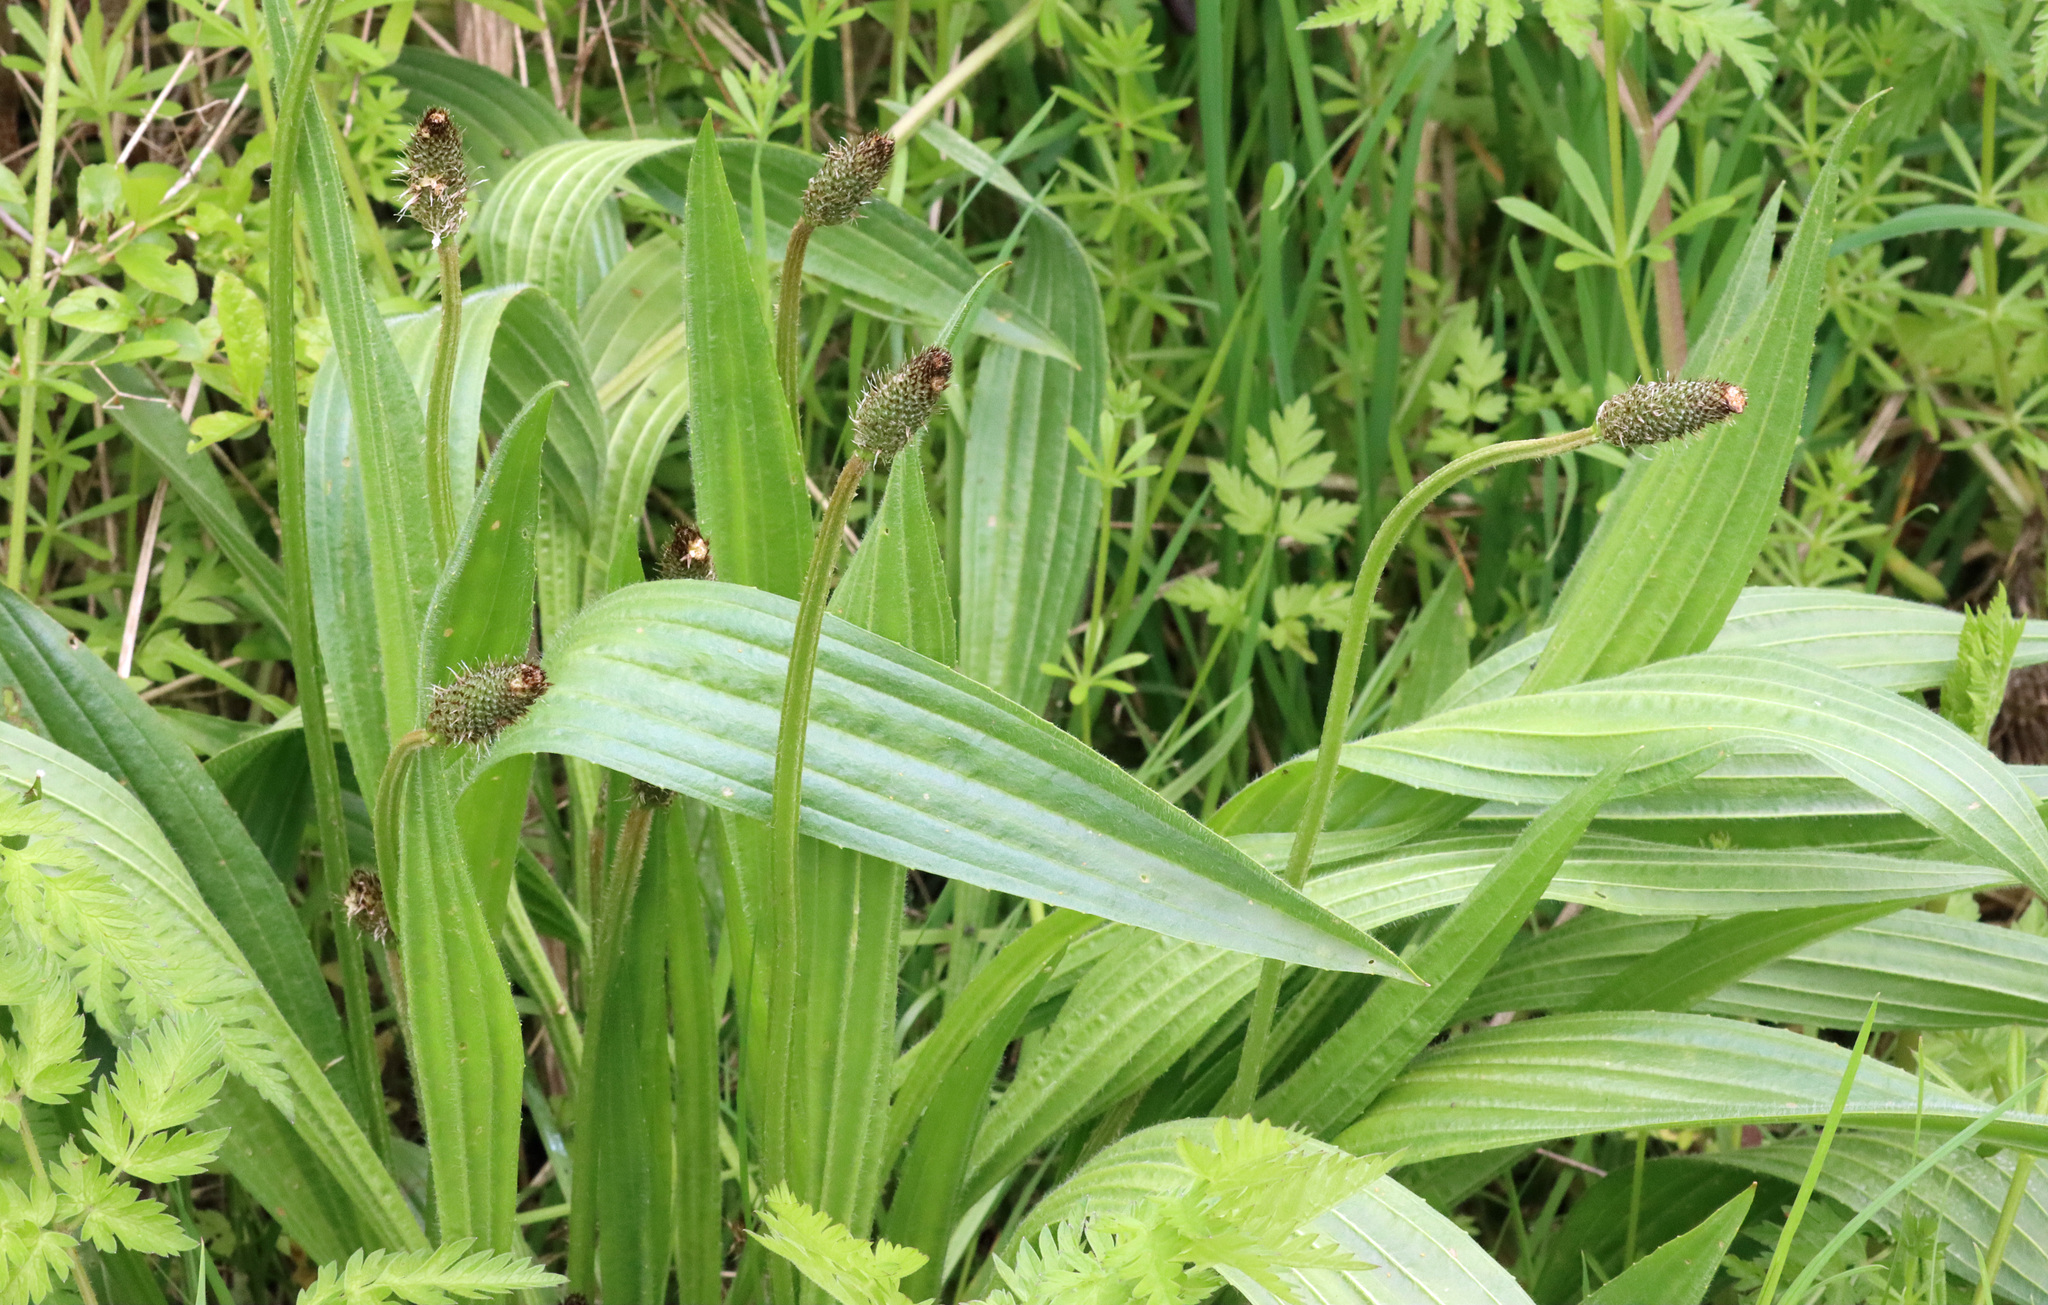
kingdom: Plantae
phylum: Tracheophyta
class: Magnoliopsida
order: Lamiales
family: Plantaginaceae
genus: Plantago
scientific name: Plantago lanceolata
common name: Ribwort plantain
